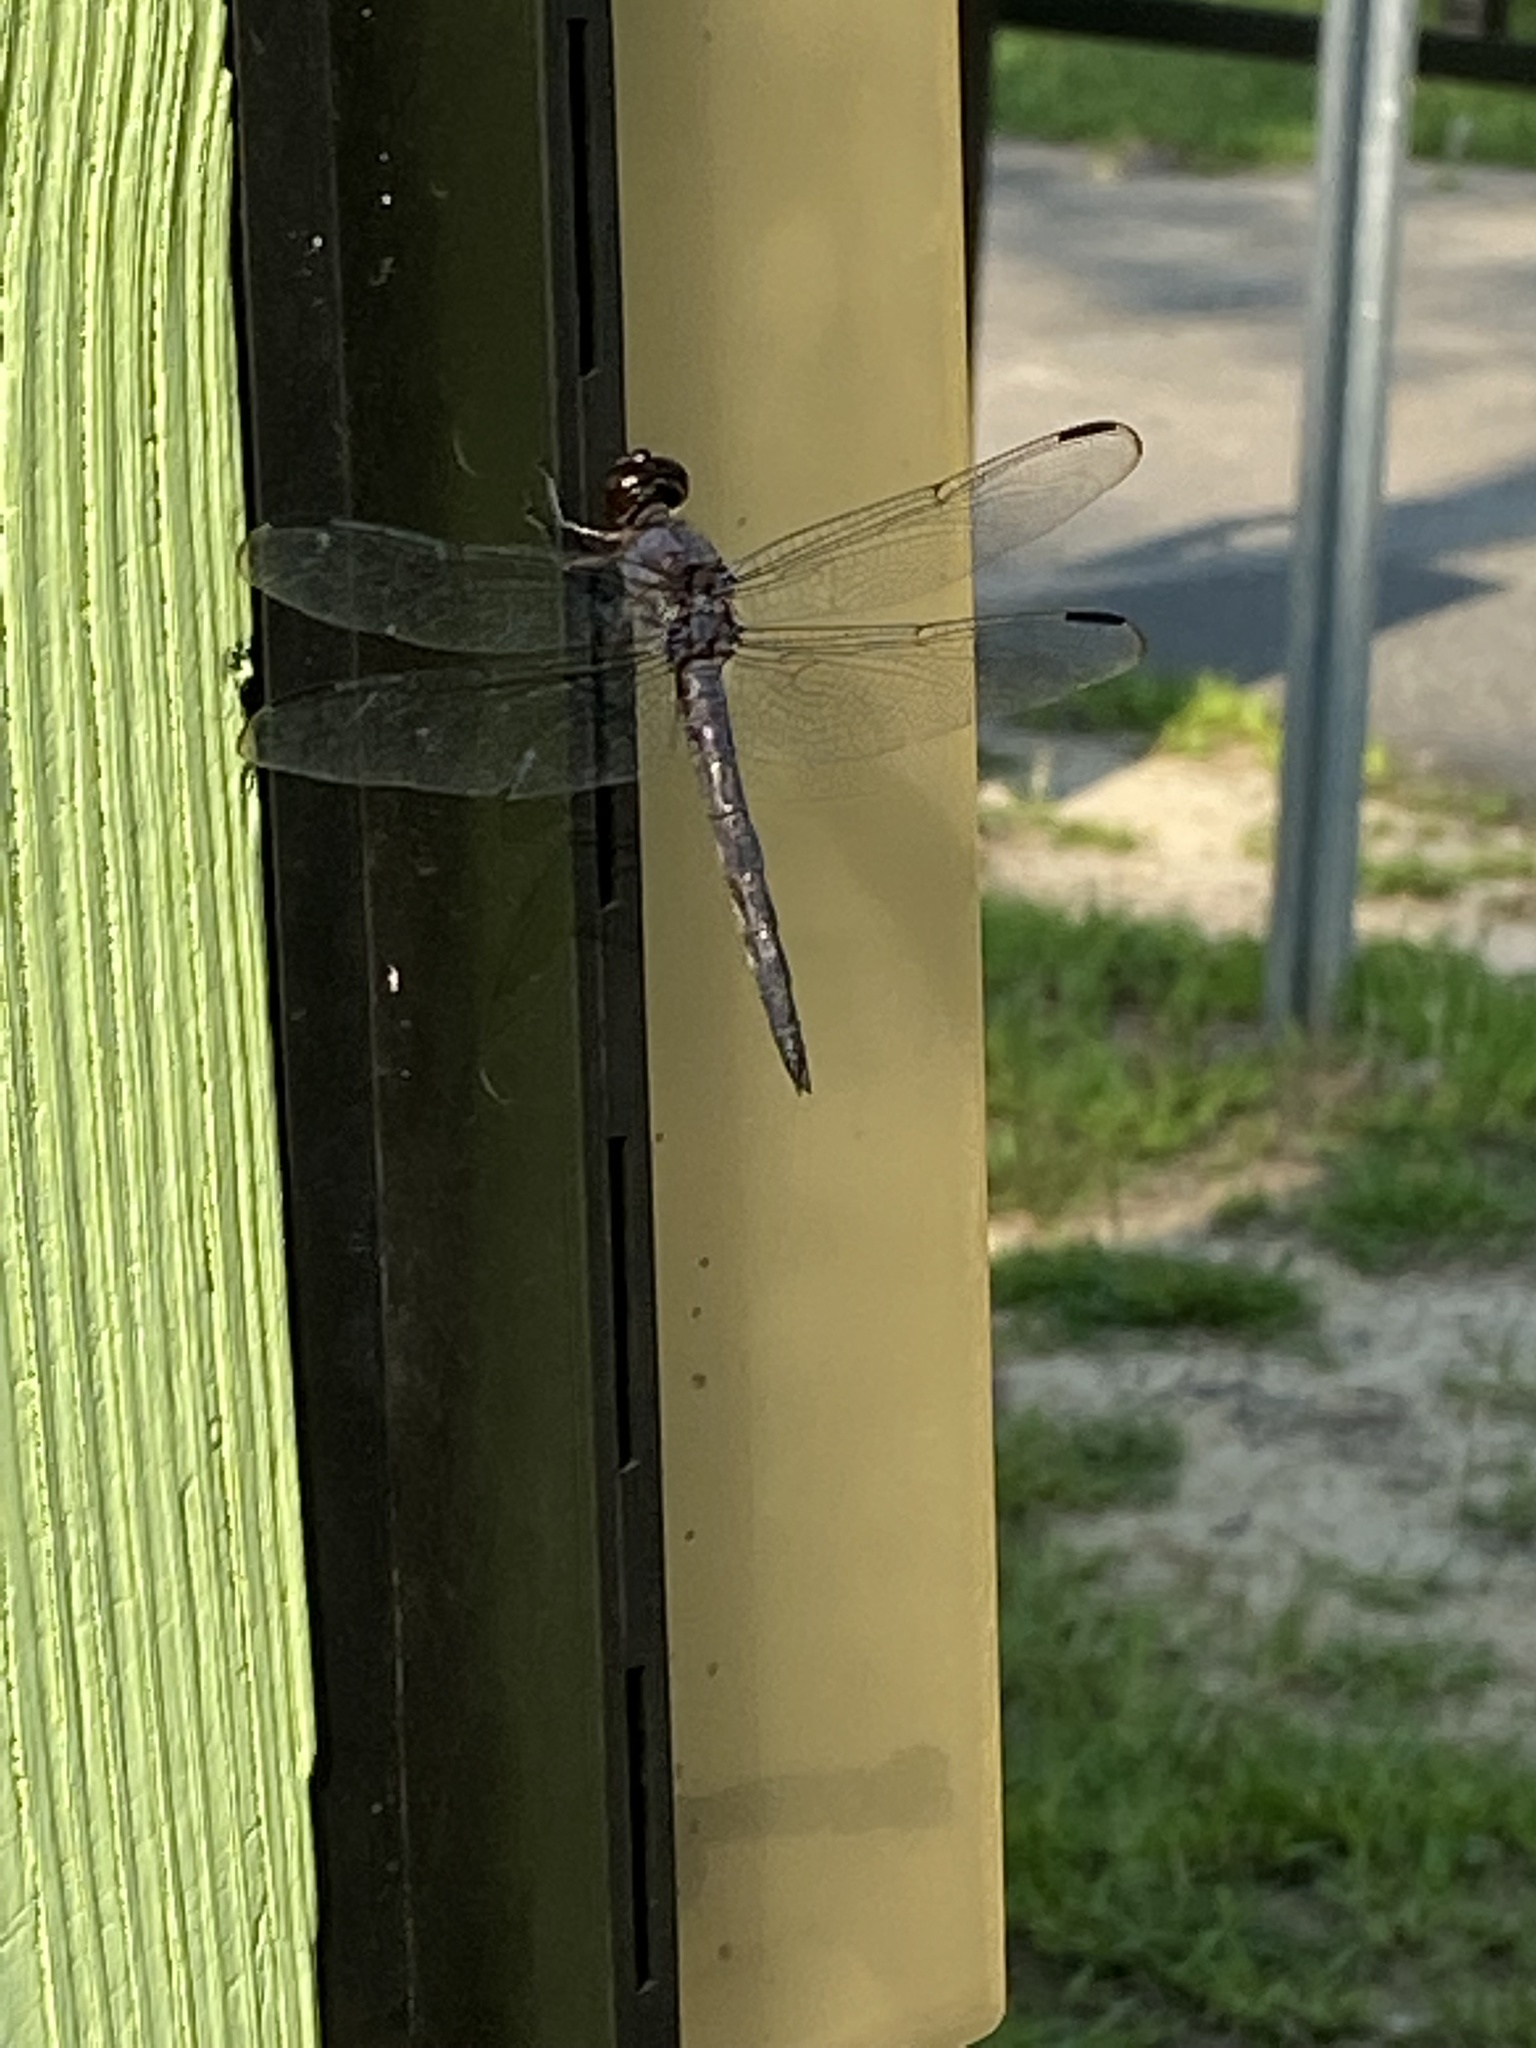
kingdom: Animalia
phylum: Arthropoda
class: Insecta
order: Odonata
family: Libellulidae
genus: Libellula
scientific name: Libellula incesta
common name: Slaty skimmer
